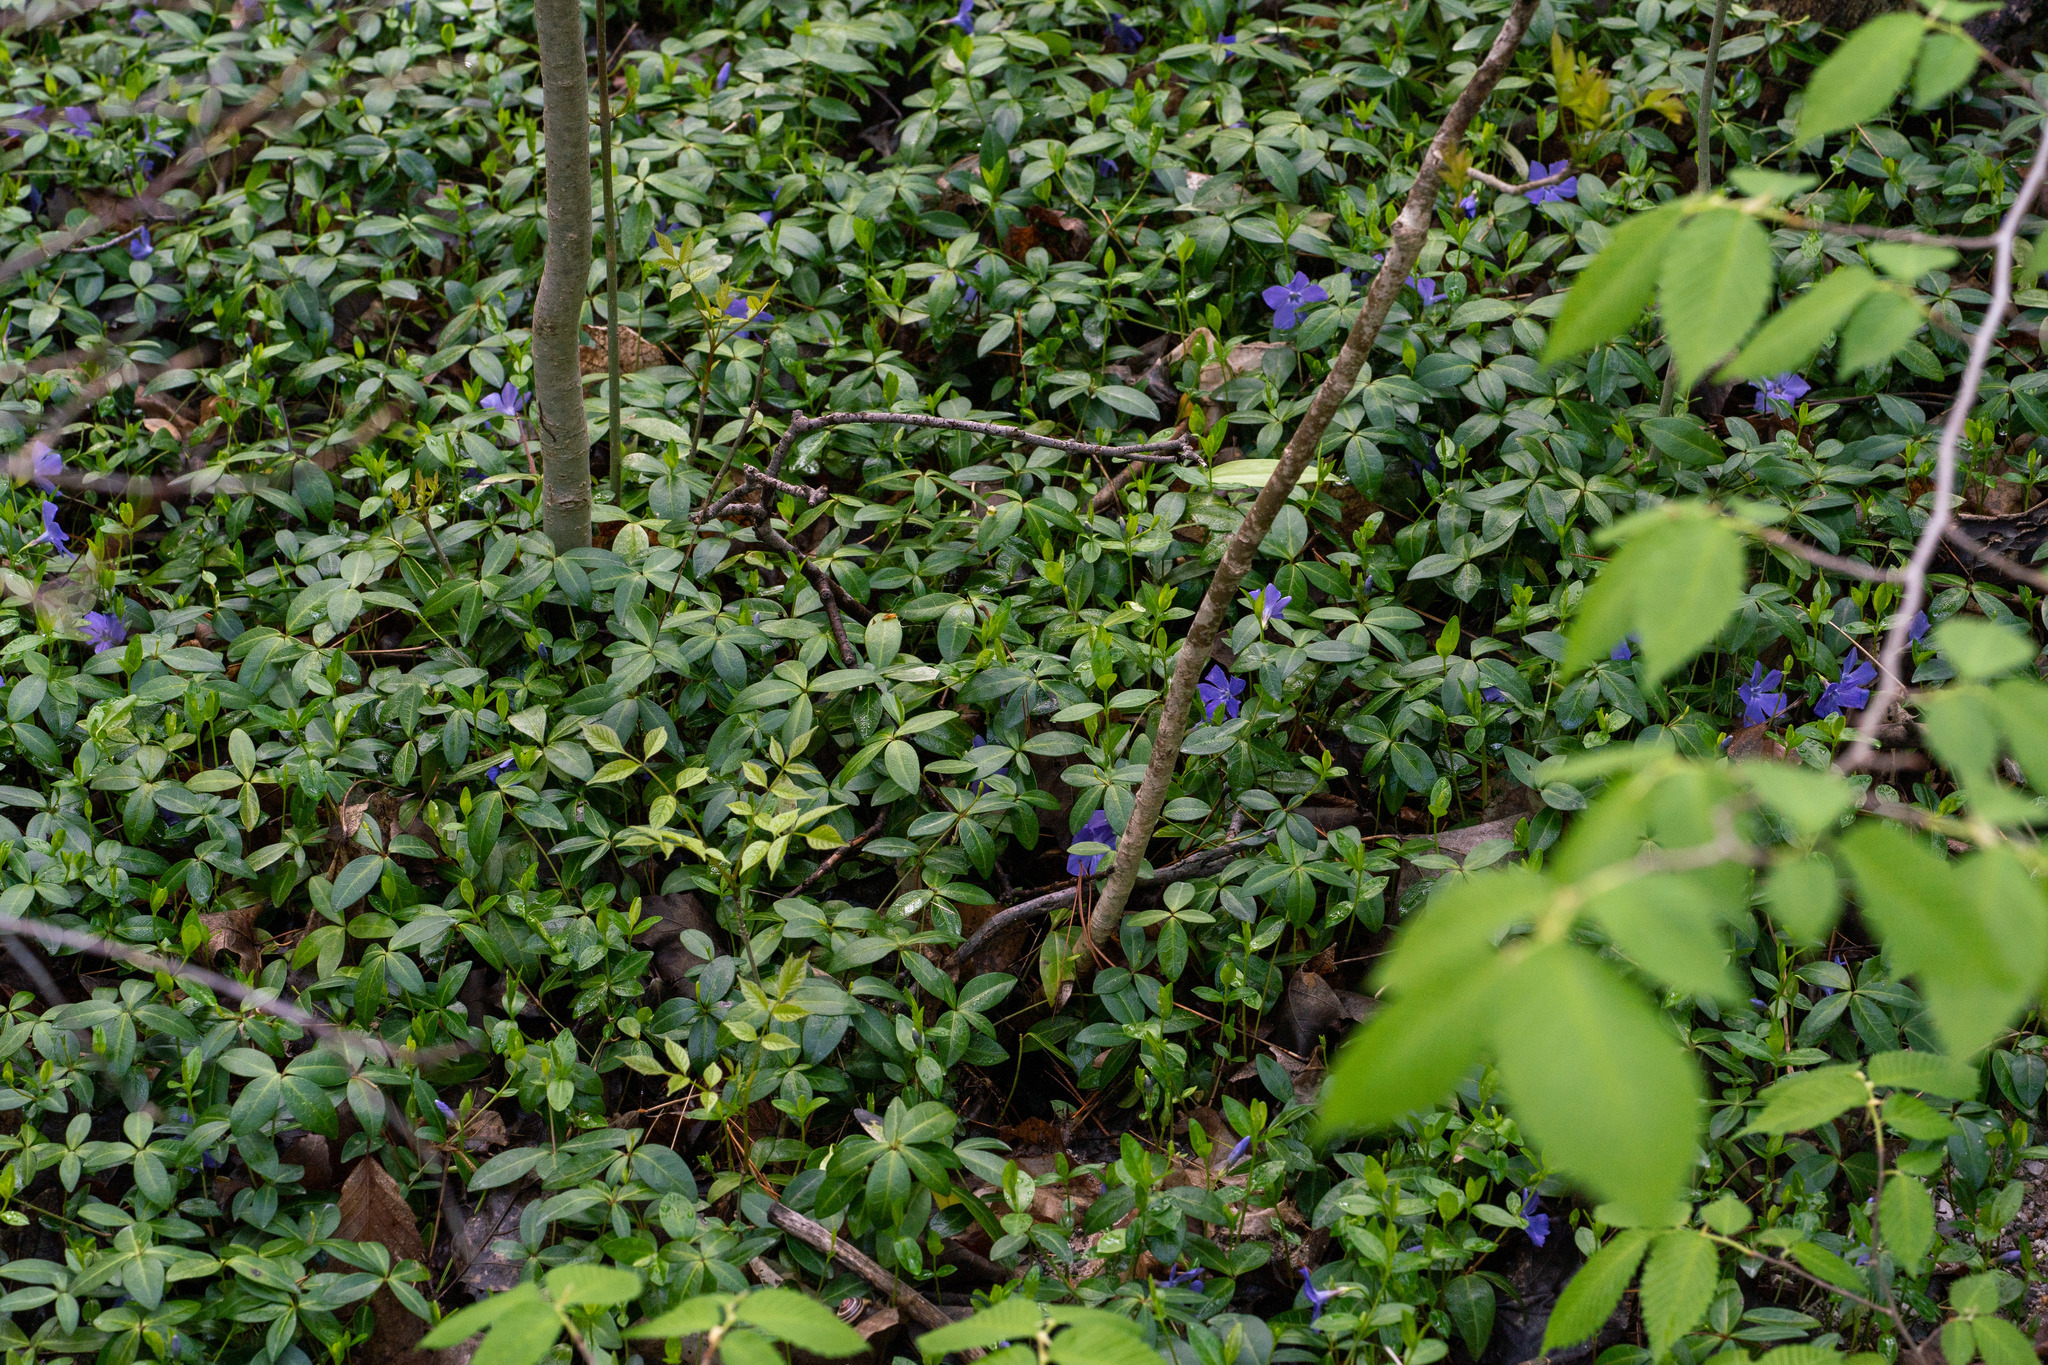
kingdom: Plantae
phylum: Tracheophyta
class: Magnoliopsida
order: Gentianales
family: Apocynaceae
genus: Vinca
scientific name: Vinca minor
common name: Lesser periwinkle
